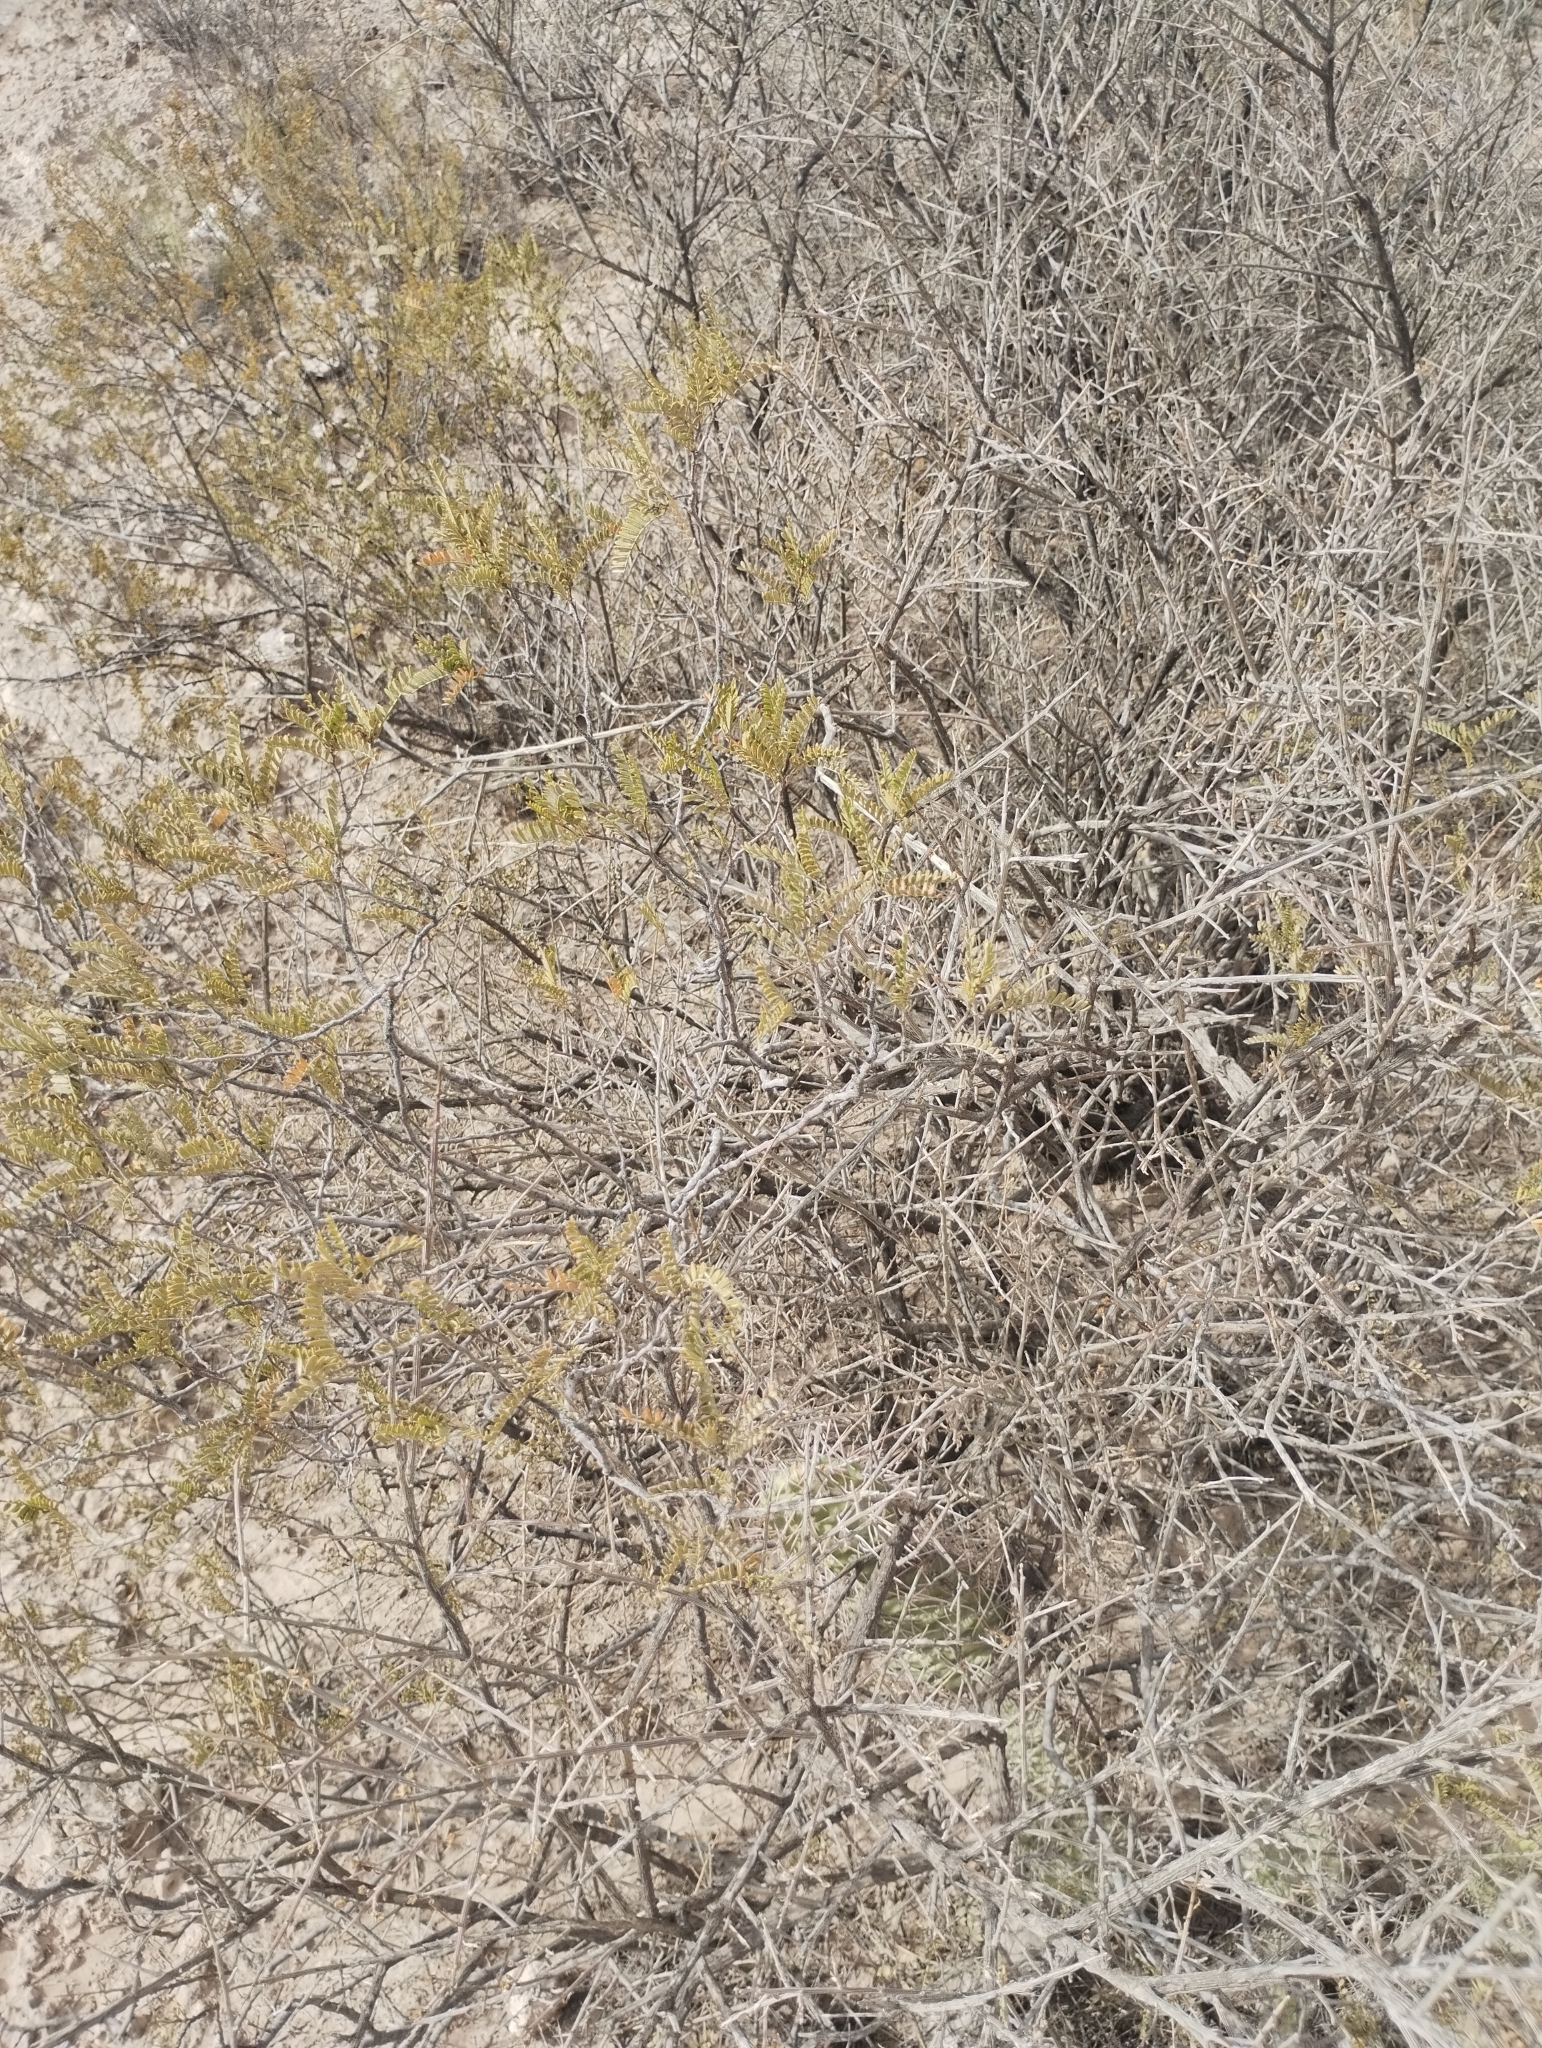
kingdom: Plantae
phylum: Tracheophyta
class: Magnoliopsida
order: Fabales
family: Fabaceae
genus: Zuccagnia
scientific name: Zuccagnia punctata
